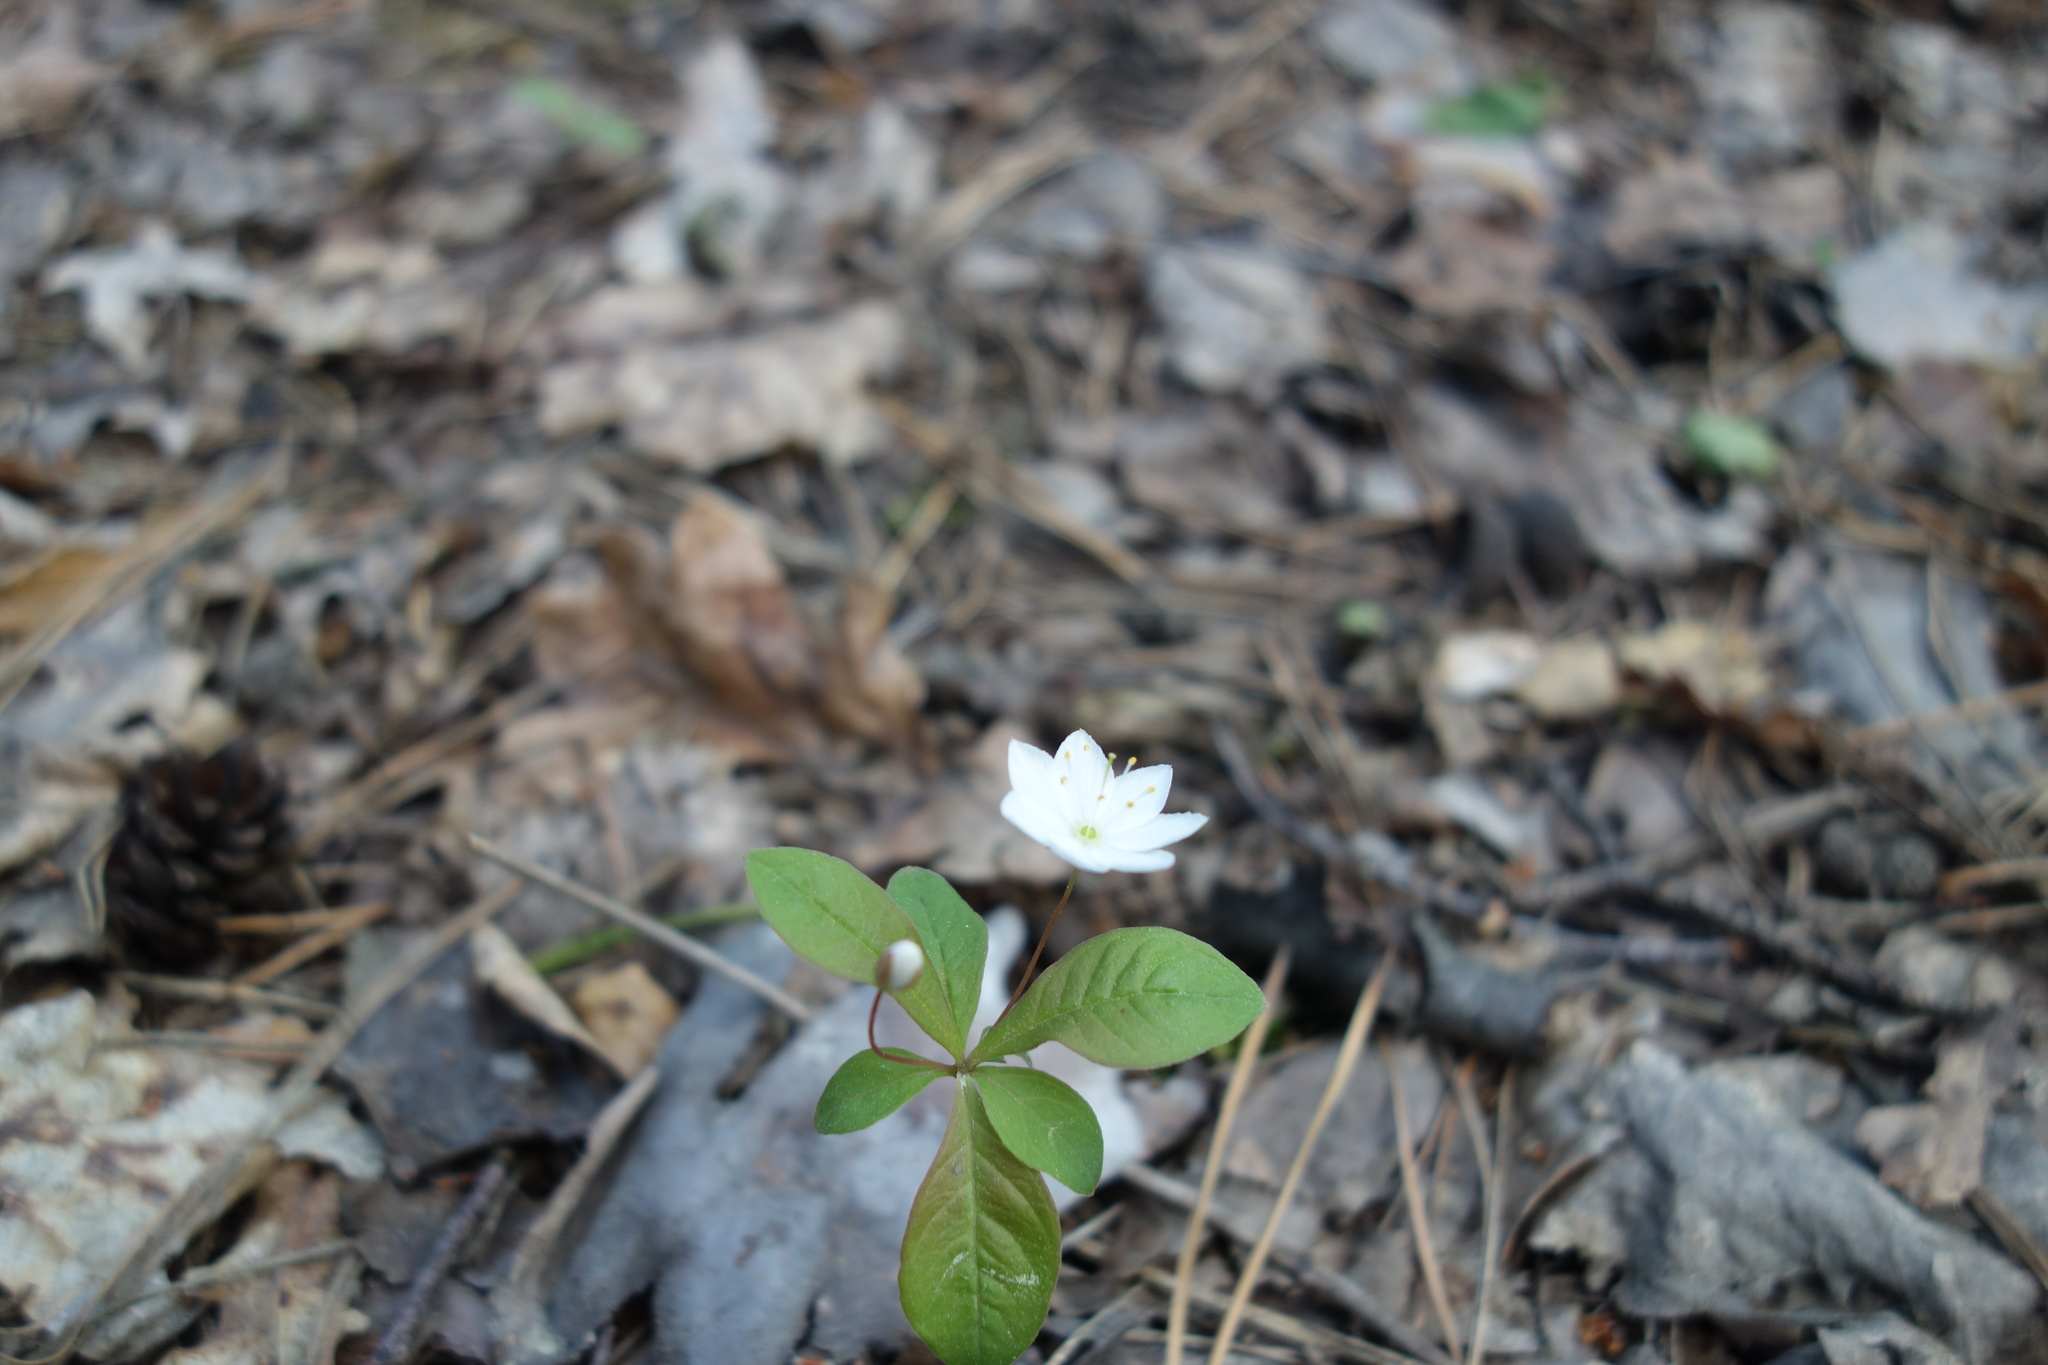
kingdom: Plantae
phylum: Tracheophyta
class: Magnoliopsida
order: Ericales
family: Primulaceae
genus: Lysimachia
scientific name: Lysimachia europaea
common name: Arctic starflower
